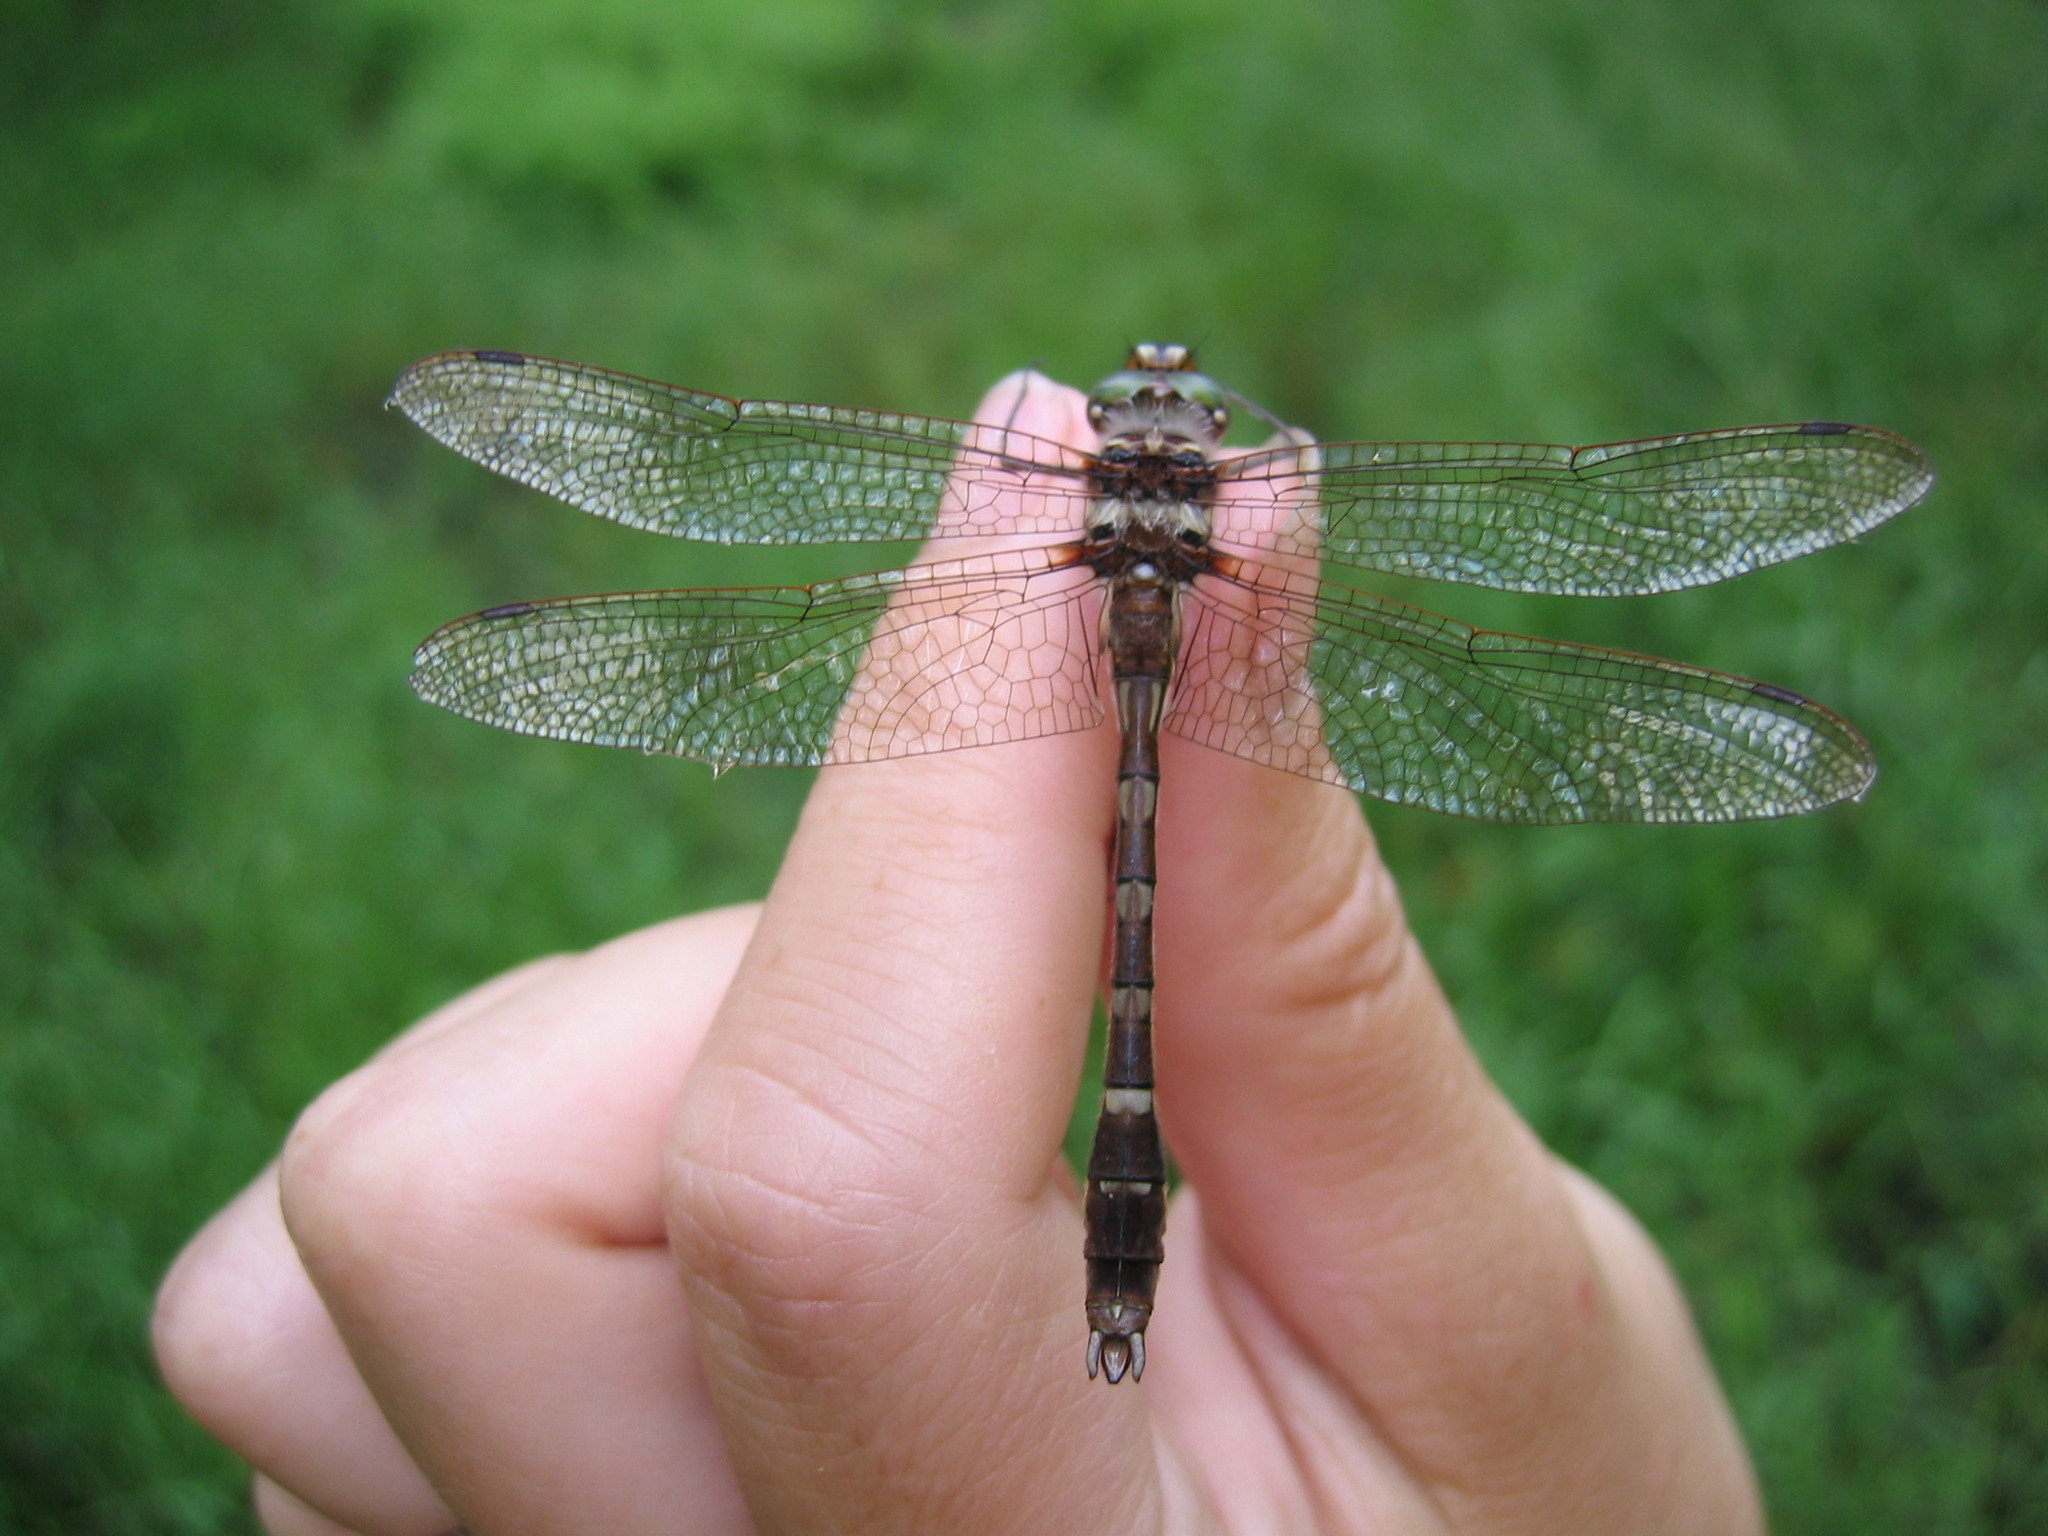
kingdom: Animalia
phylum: Arthropoda
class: Insecta
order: Odonata
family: Macromiidae
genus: Didymops
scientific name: Didymops transversa
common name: Stream cruiser
